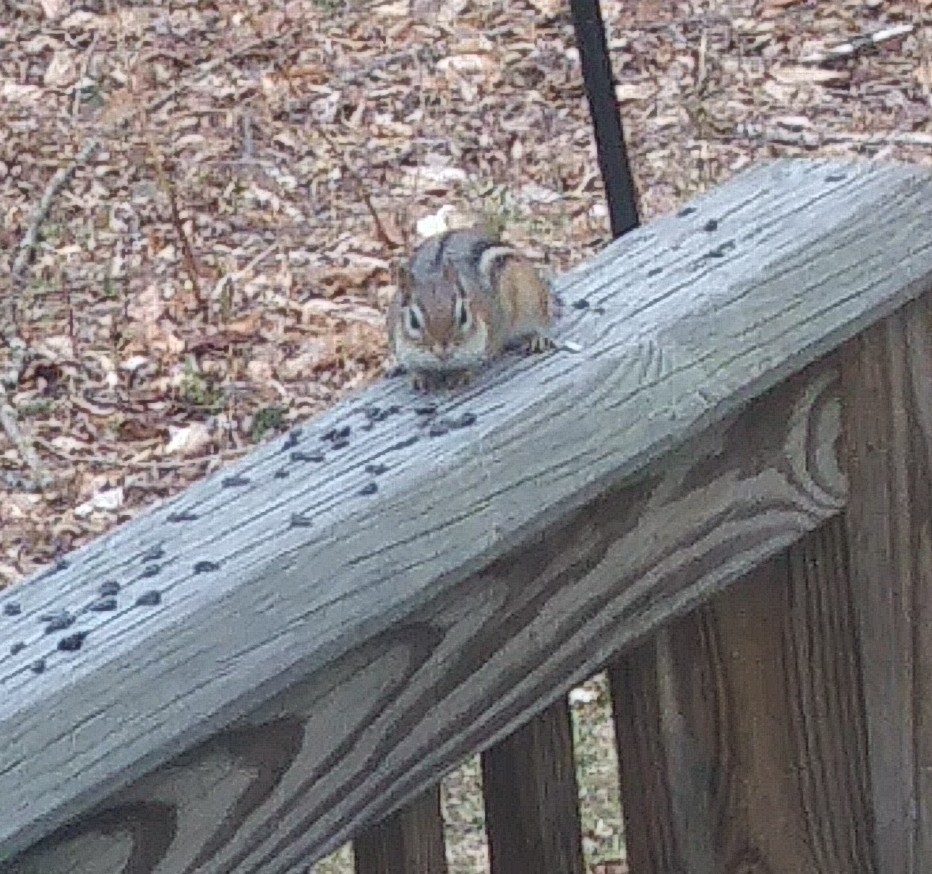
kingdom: Animalia
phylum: Chordata
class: Mammalia
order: Rodentia
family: Sciuridae
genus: Tamias
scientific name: Tamias striatus
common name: Eastern chipmunk
